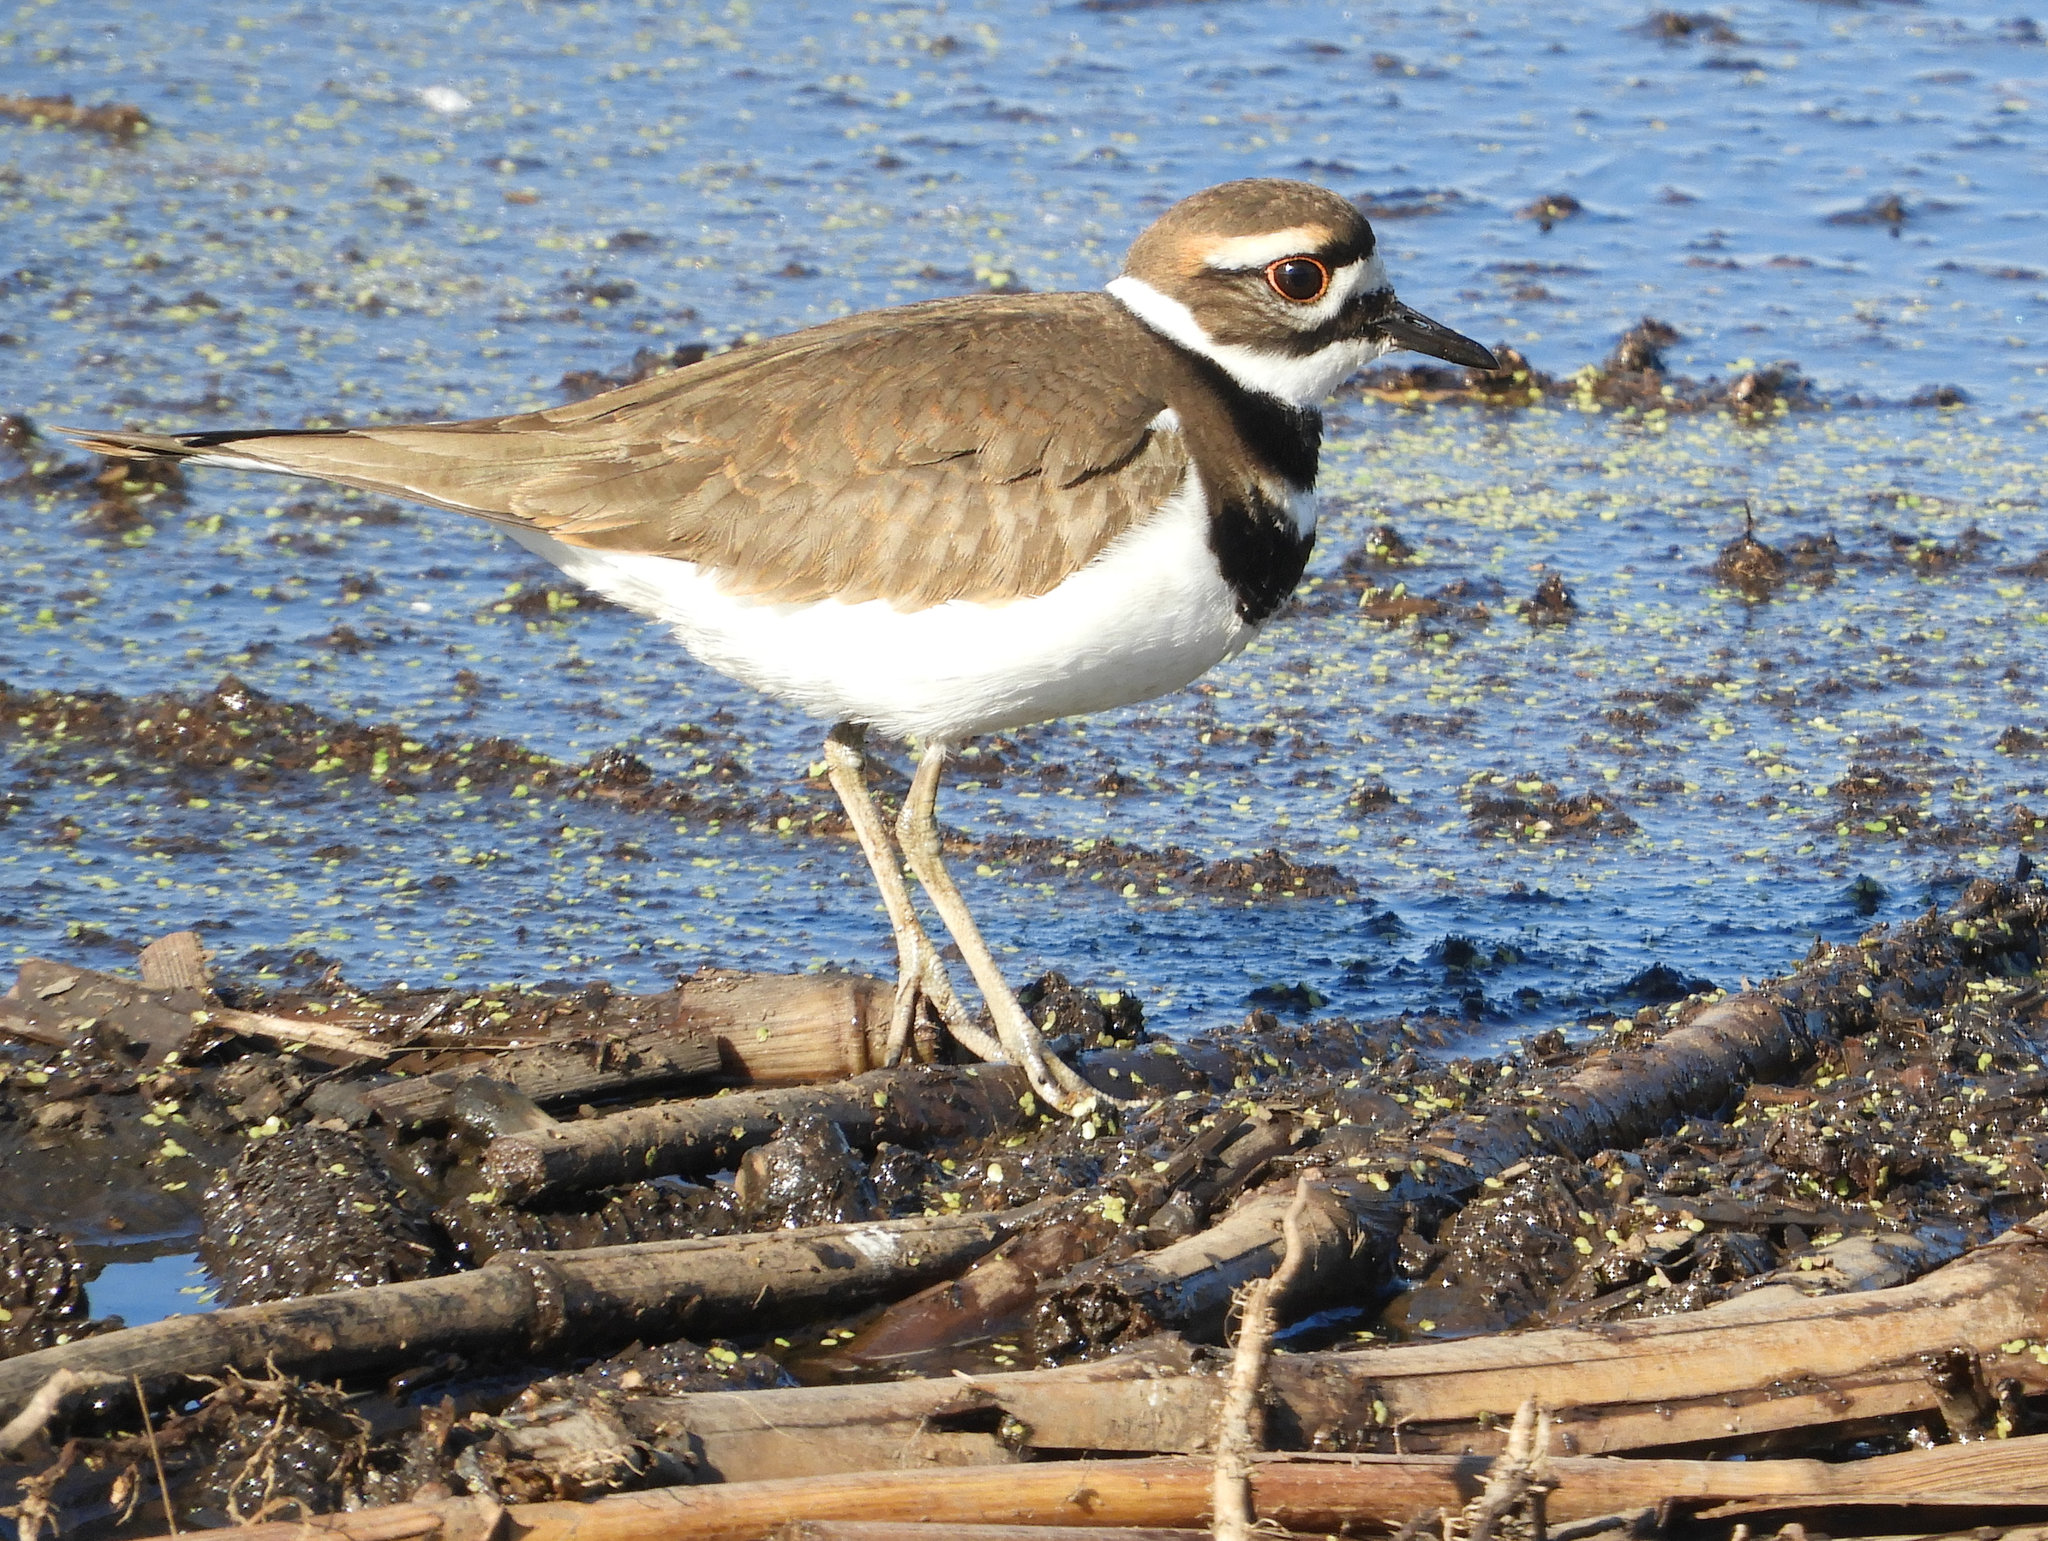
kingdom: Animalia
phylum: Chordata
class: Aves
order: Charadriiformes
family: Charadriidae
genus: Charadrius
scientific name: Charadrius vociferus
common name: Killdeer
